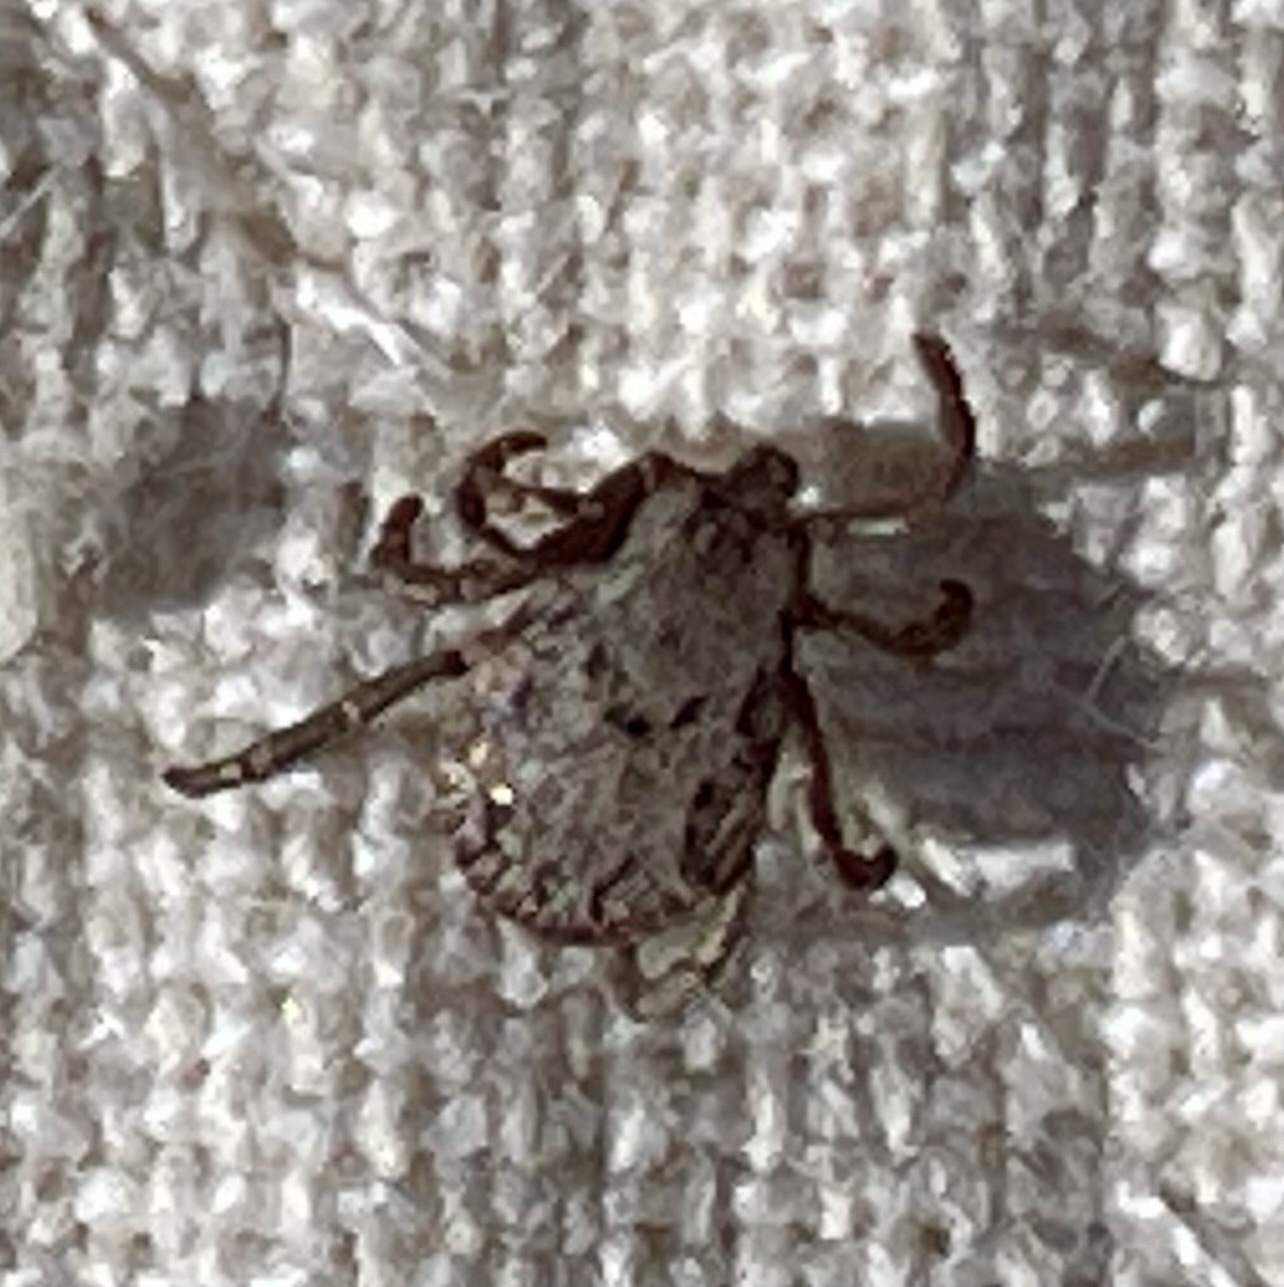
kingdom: Animalia
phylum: Arthropoda
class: Arachnida
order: Ixodida
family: Ixodidae
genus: Dermacentor
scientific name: Dermacentor occidentalis
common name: Net tick
